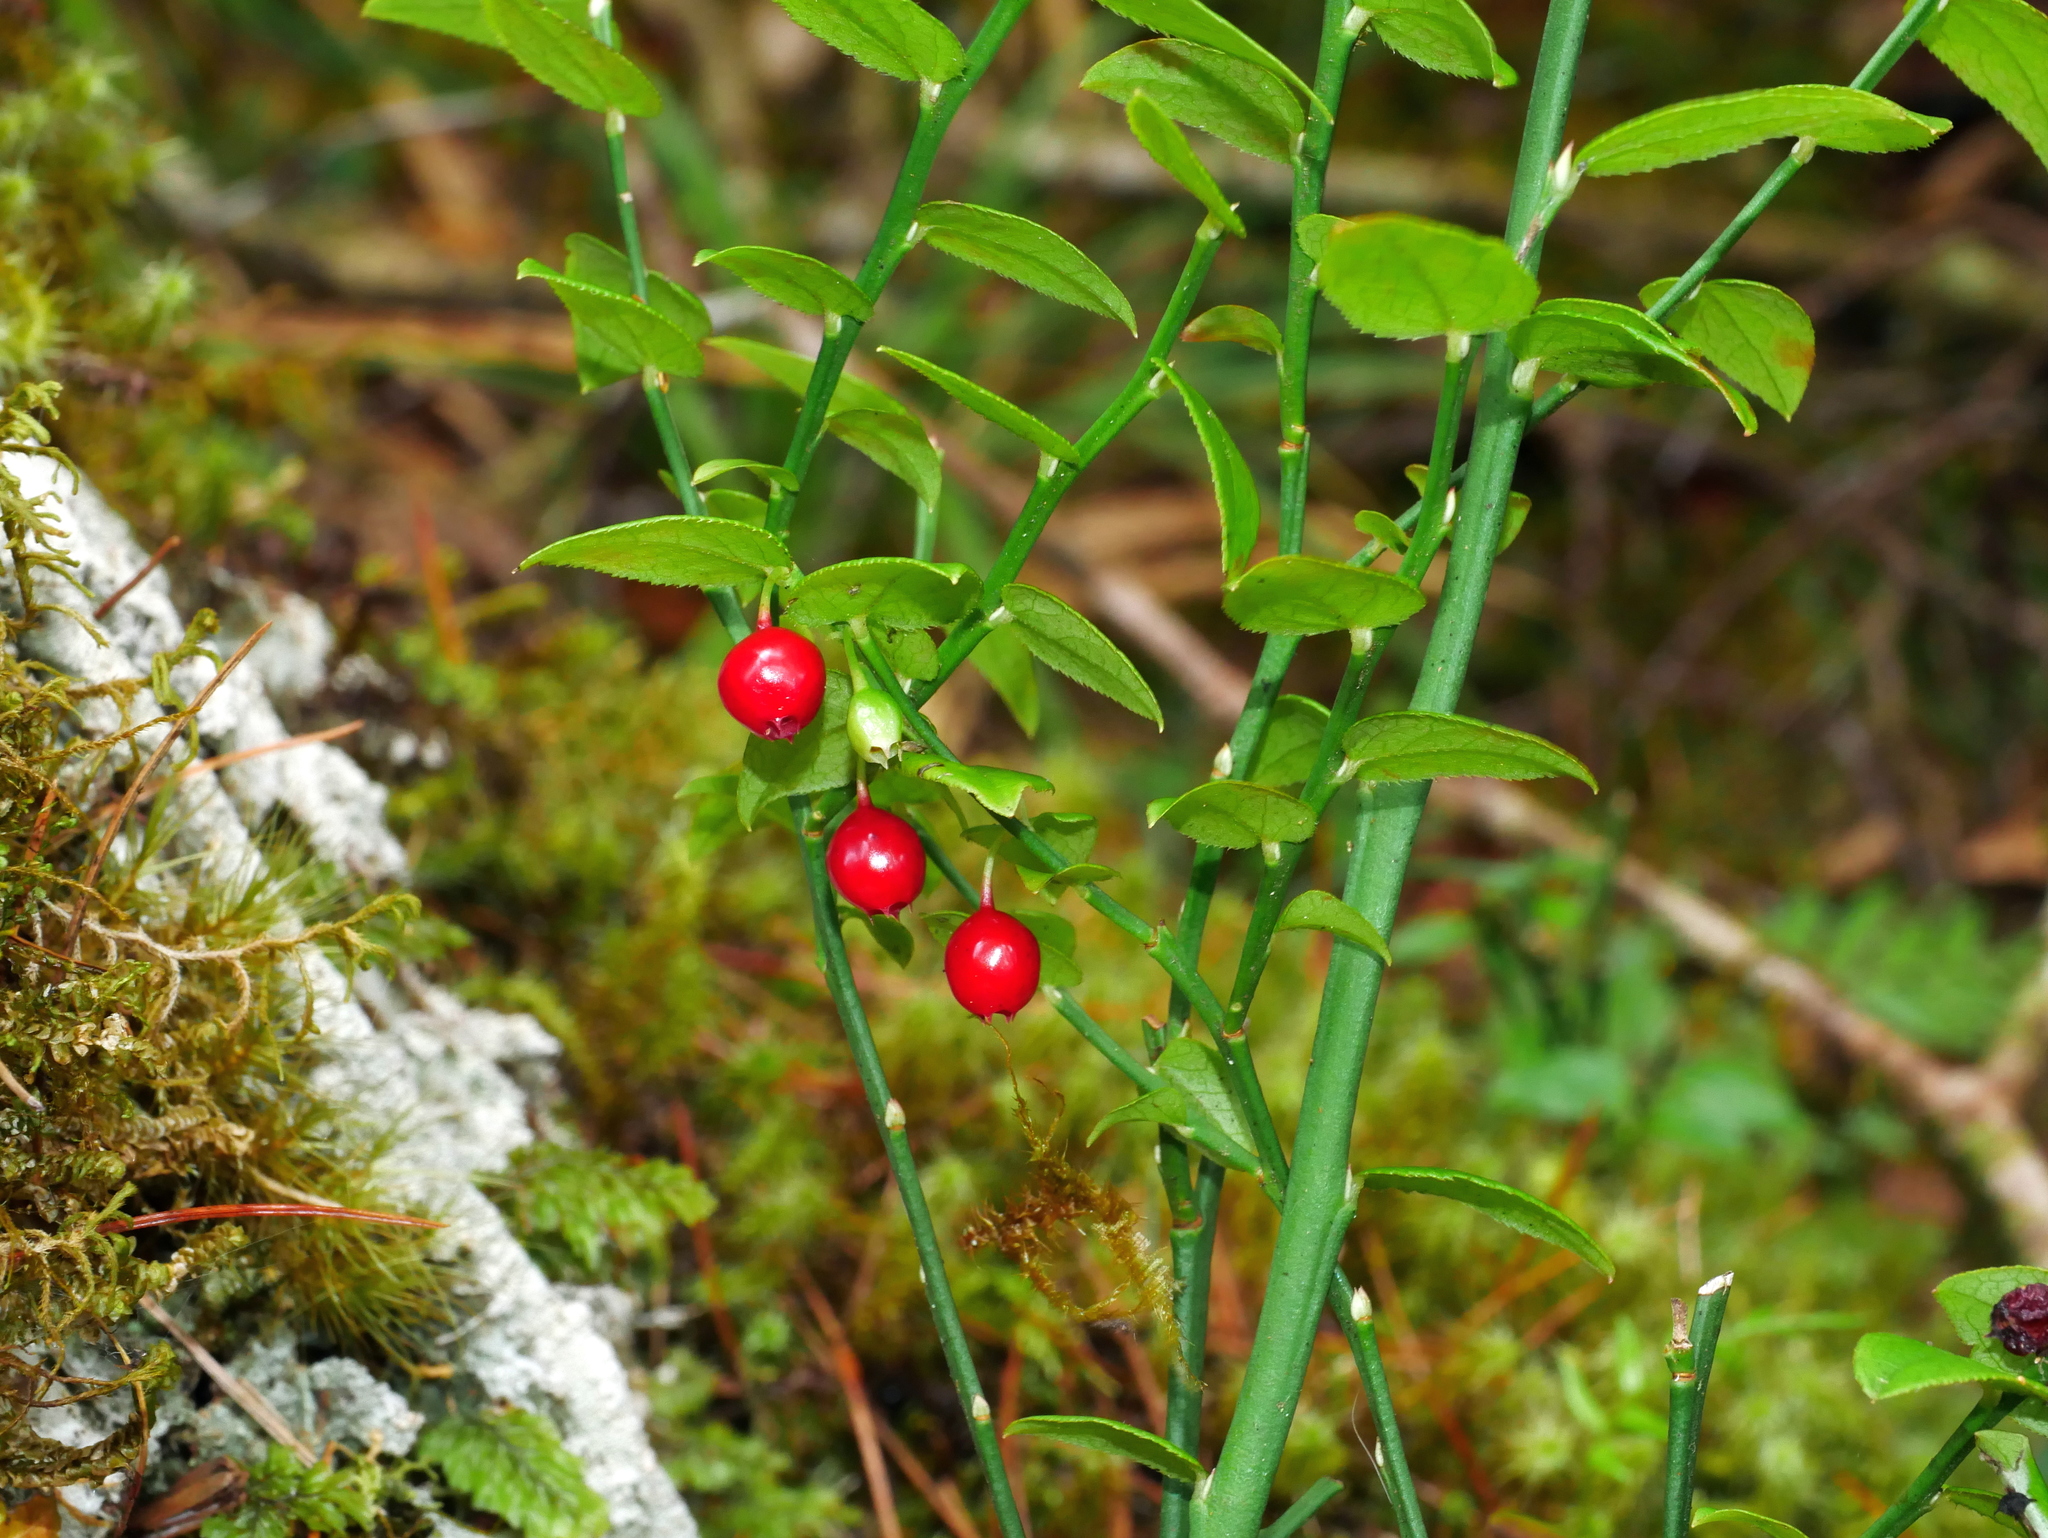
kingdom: Plantae
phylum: Tracheophyta
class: Magnoliopsida
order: Ericales
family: Ericaceae
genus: Vaccinium
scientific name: Vaccinium japonicum
